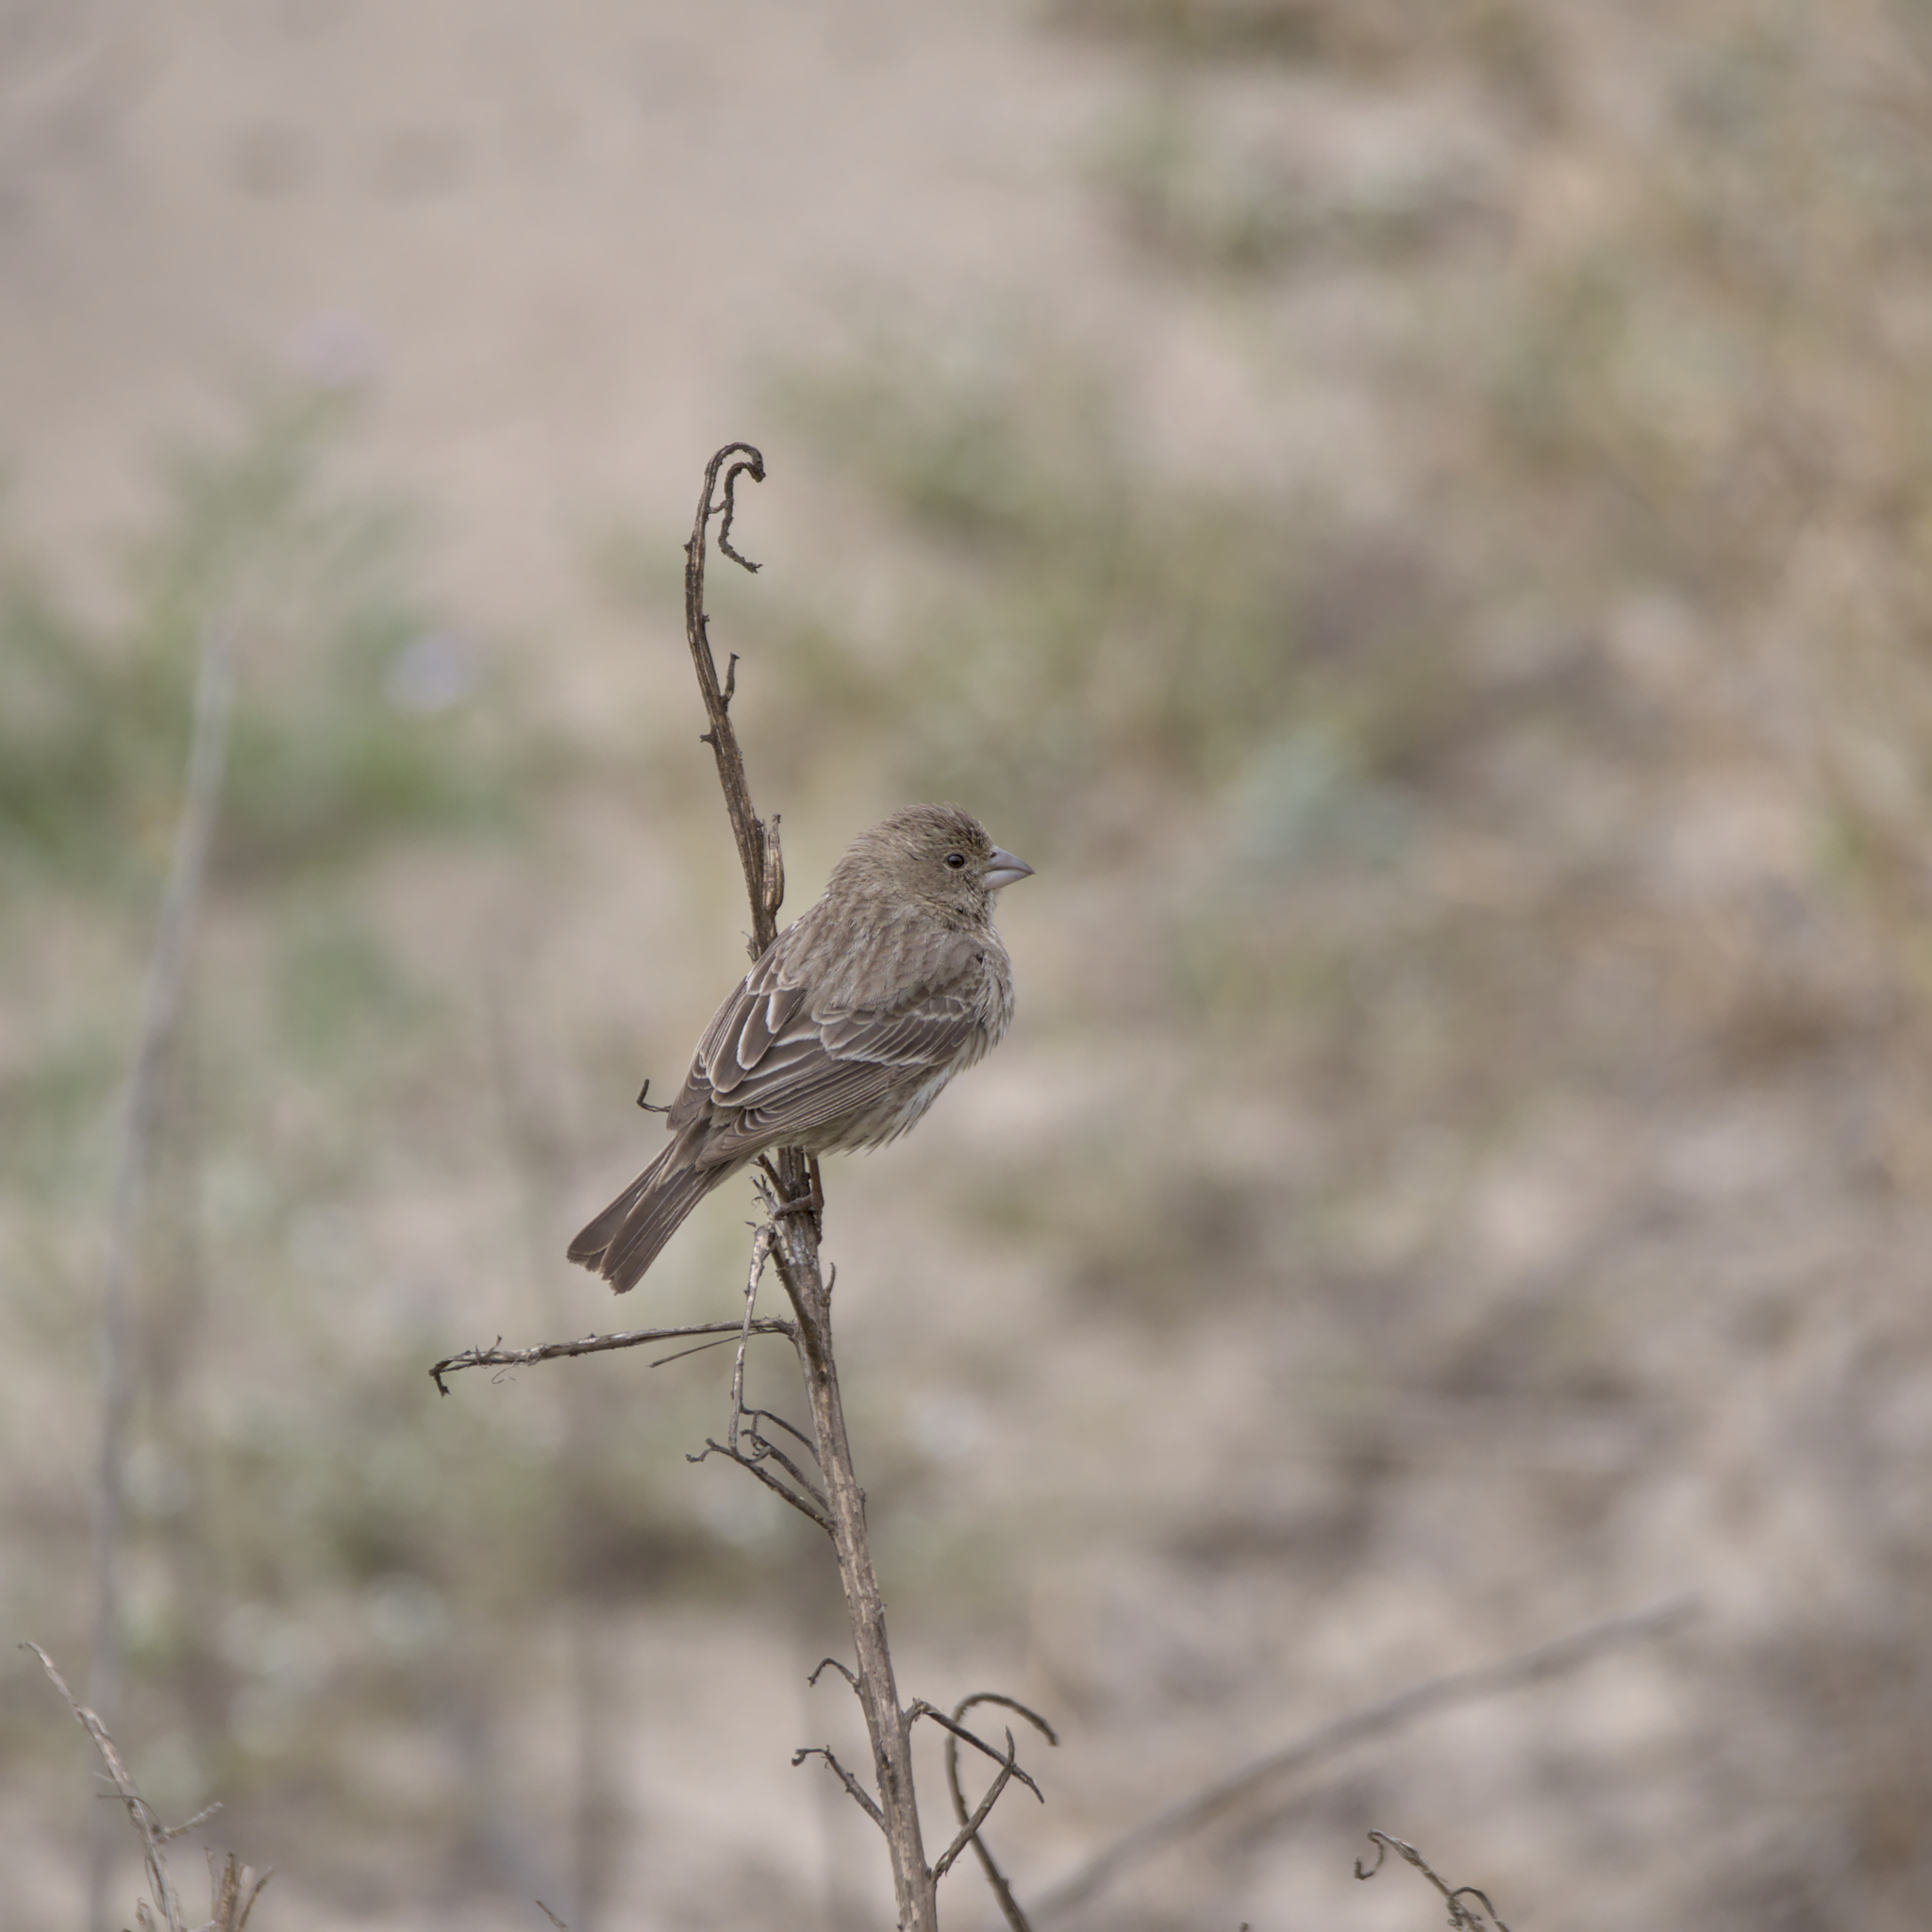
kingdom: Animalia
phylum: Chordata
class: Aves
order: Passeriformes
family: Fringillidae
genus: Haemorhous
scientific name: Haemorhous mexicanus
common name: House finch
